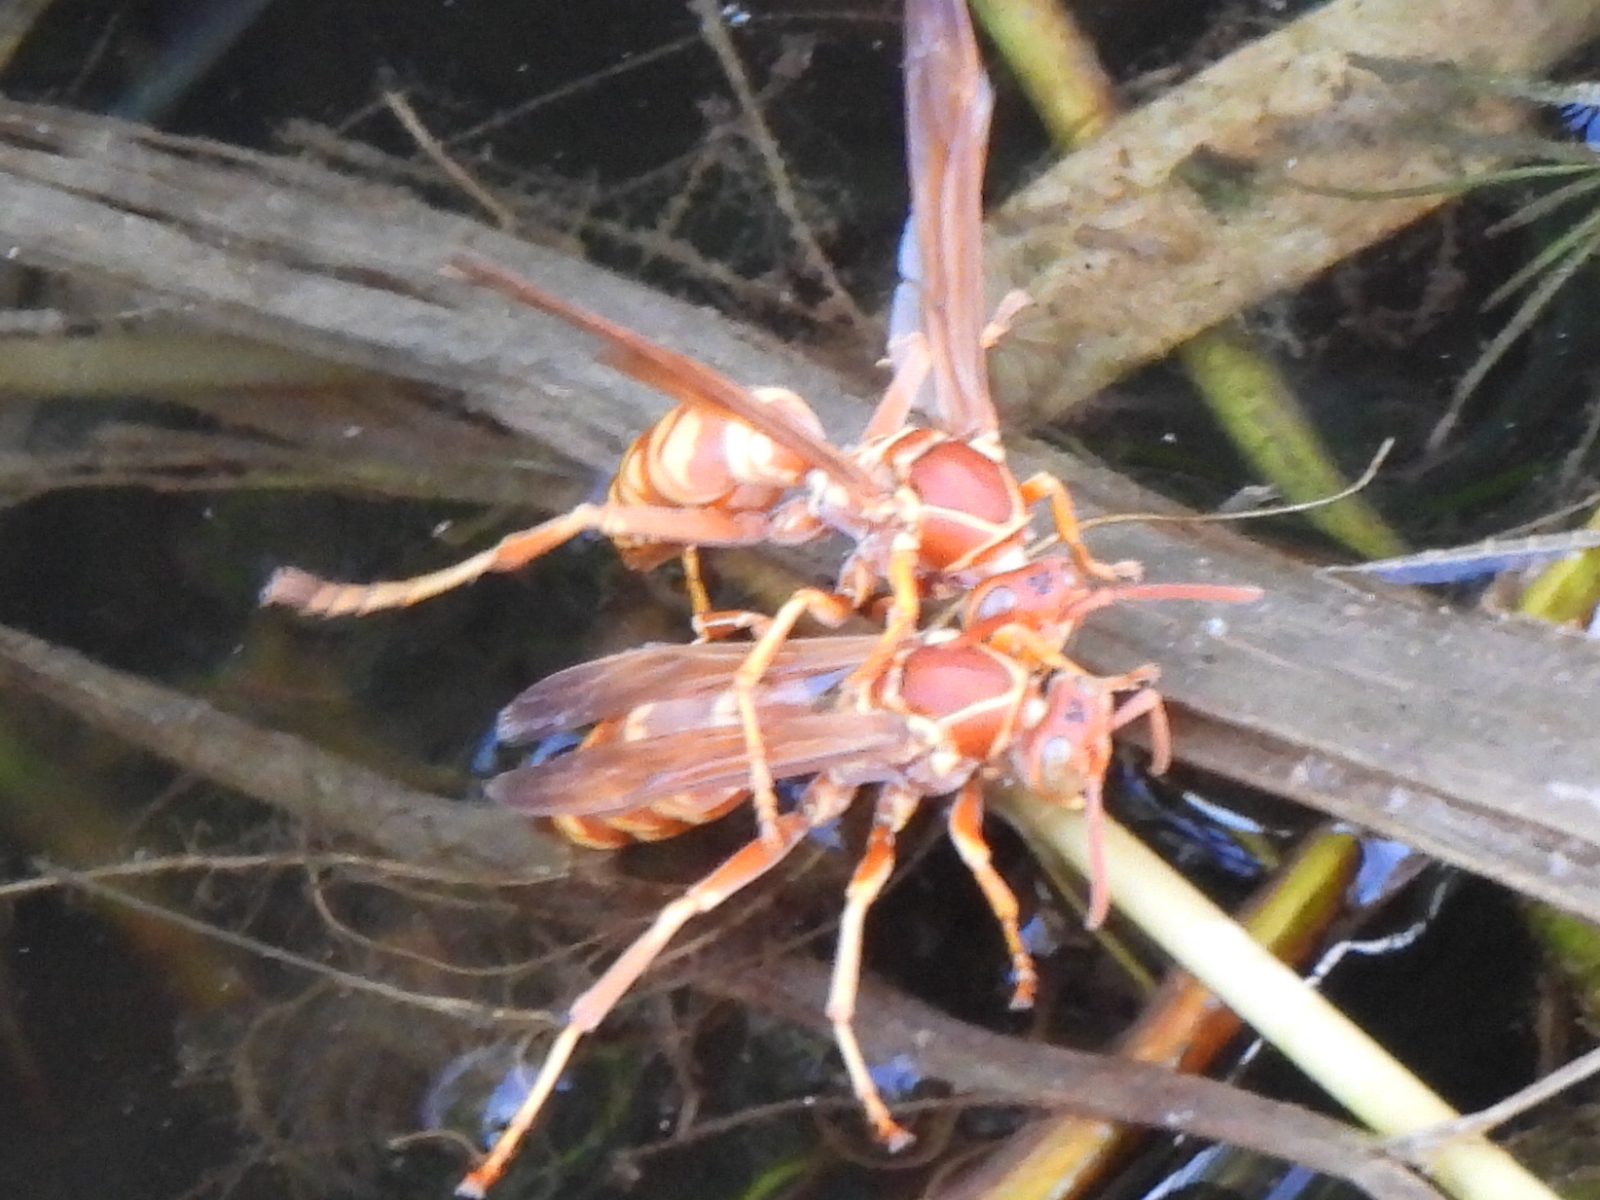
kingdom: Animalia
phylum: Arthropoda
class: Insecta
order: Hymenoptera
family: Eumenidae
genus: Polistes
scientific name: Polistes apachus
